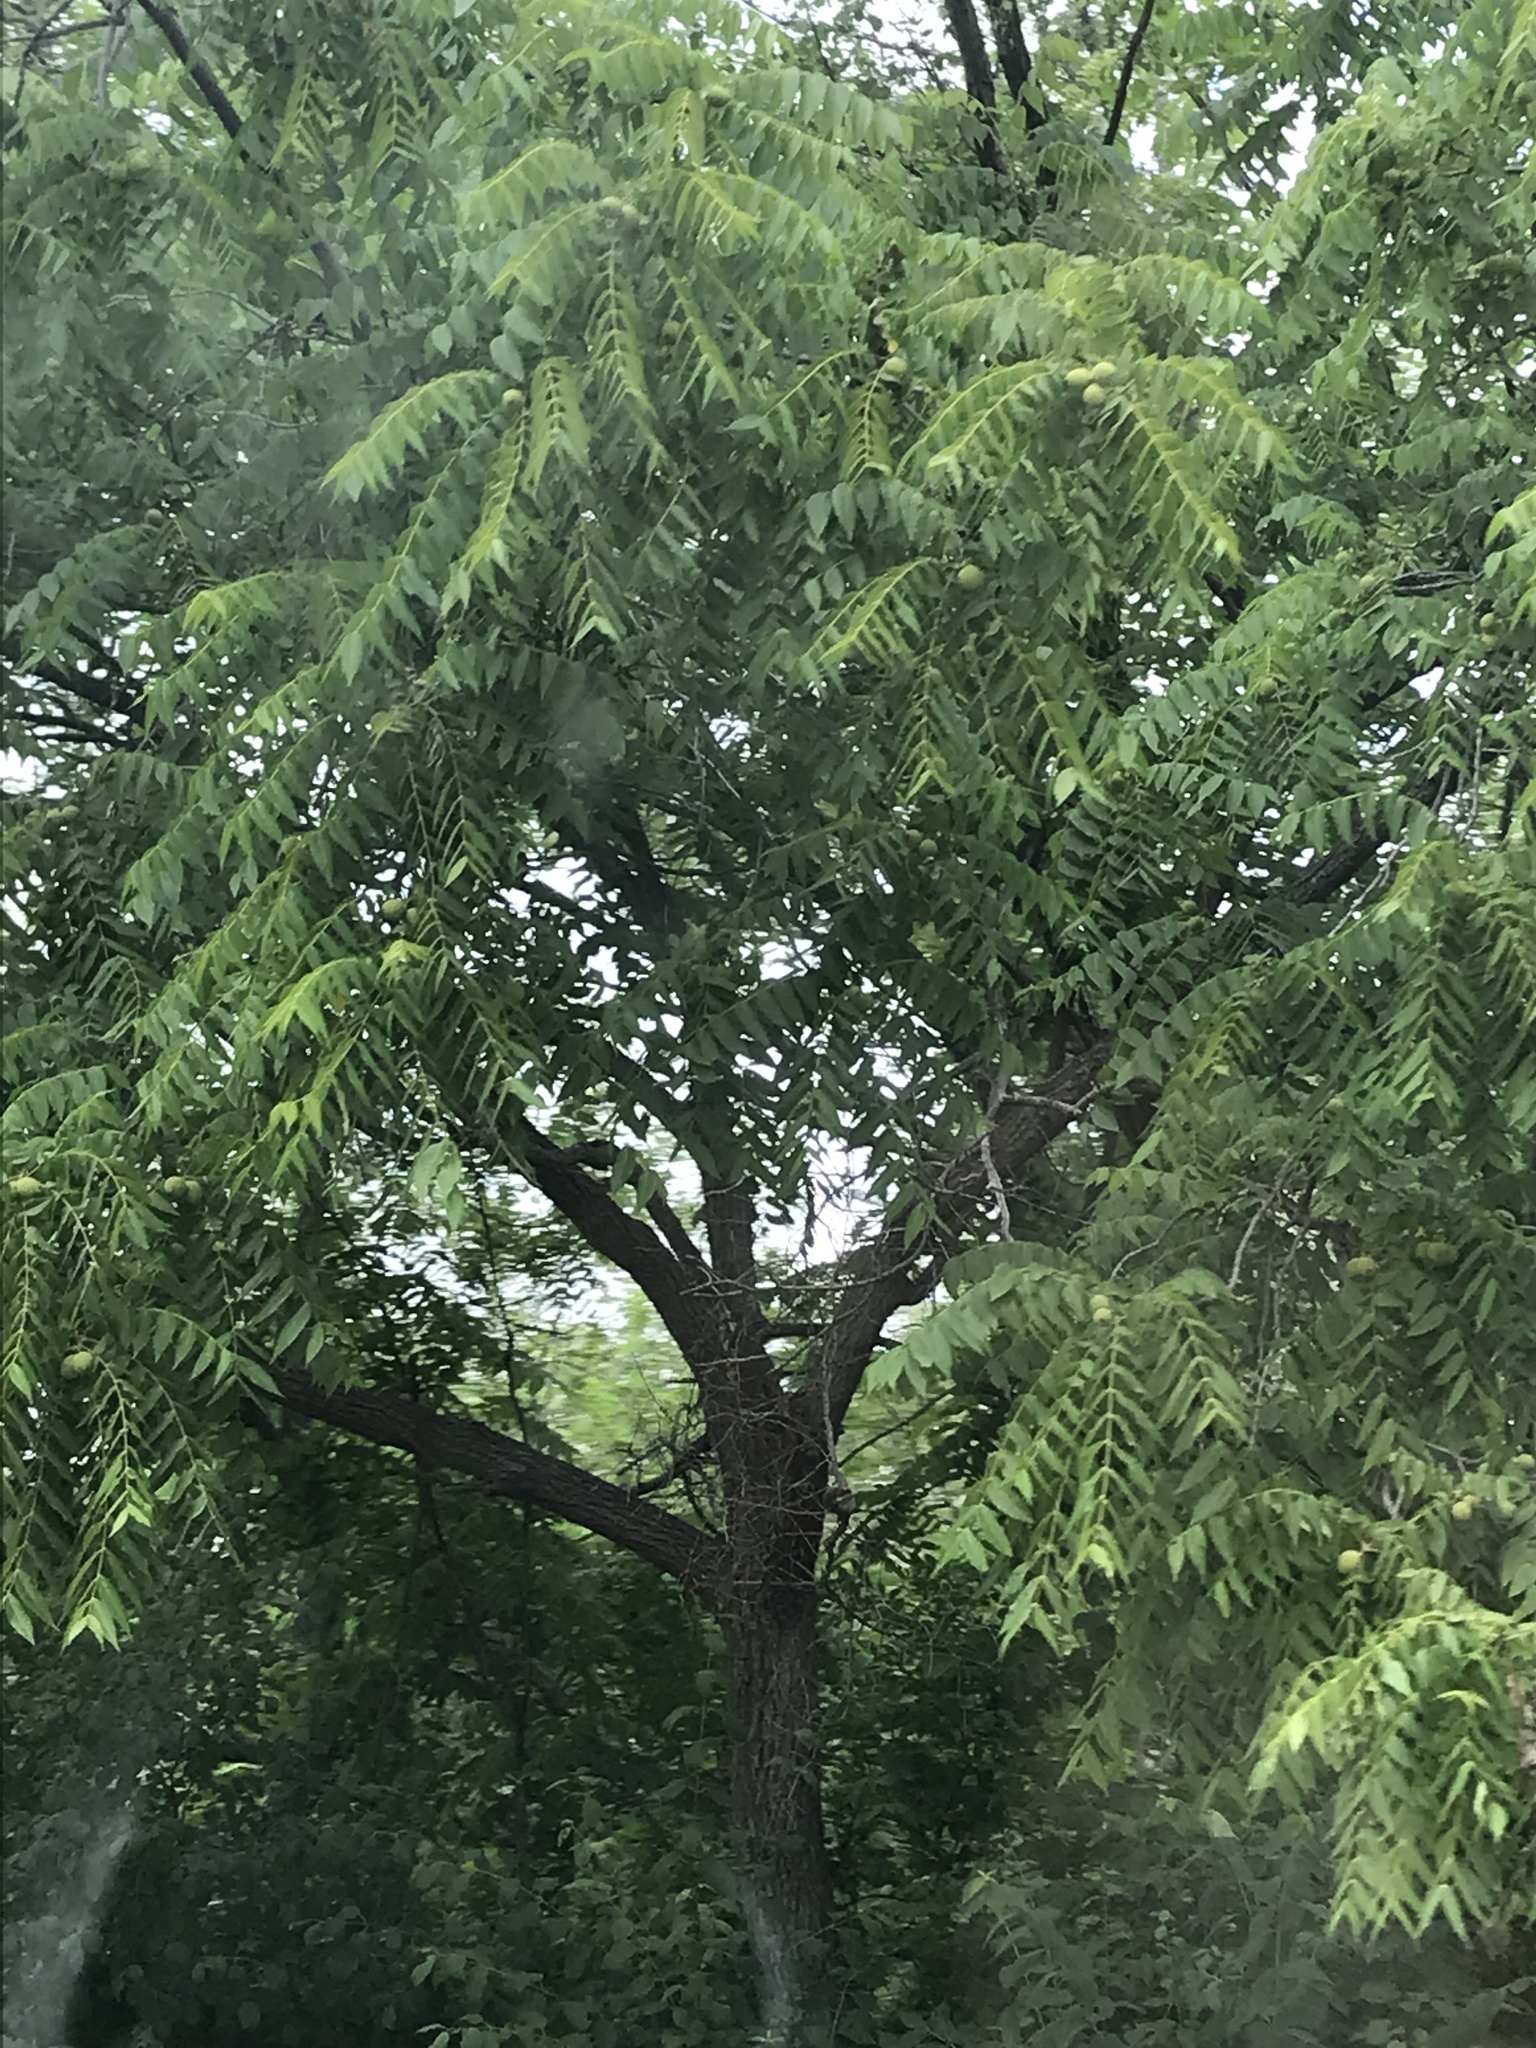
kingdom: Plantae
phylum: Tracheophyta
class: Magnoliopsida
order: Fagales
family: Juglandaceae
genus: Juglans
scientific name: Juglans nigra
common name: Black walnut
